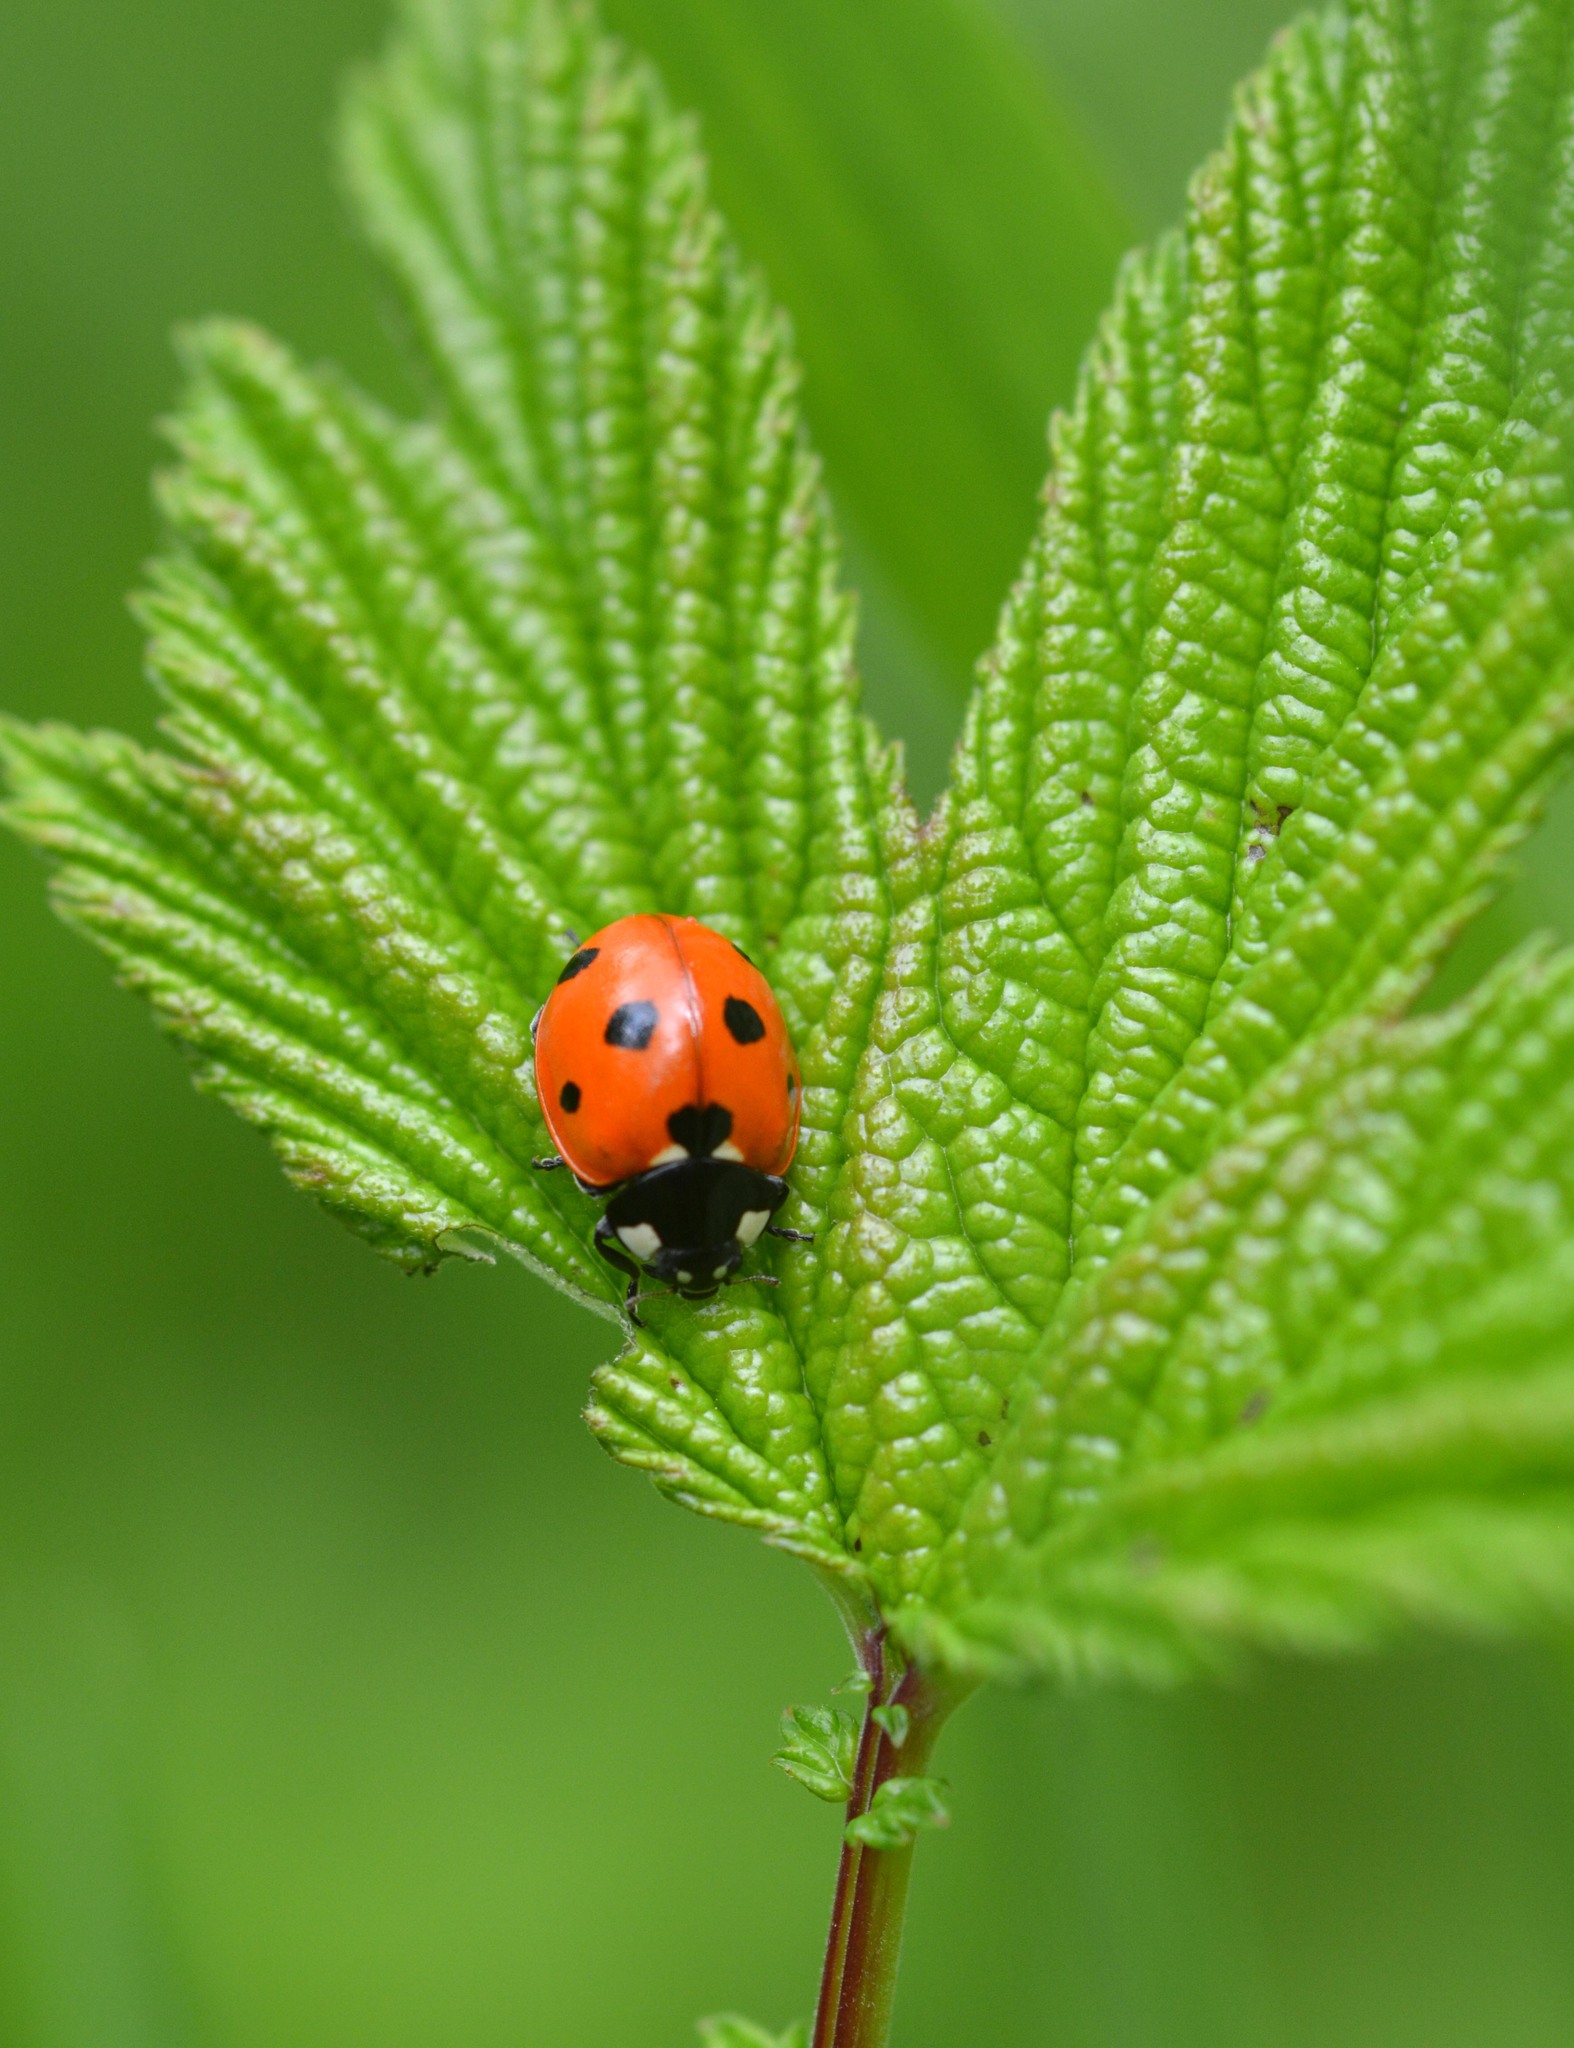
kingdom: Animalia
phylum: Arthropoda
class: Insecta
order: Coleoptera
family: Coccinellidae
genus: Coccinella
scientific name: Coccinella septempunctata
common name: Sevenspotted lady beetle
